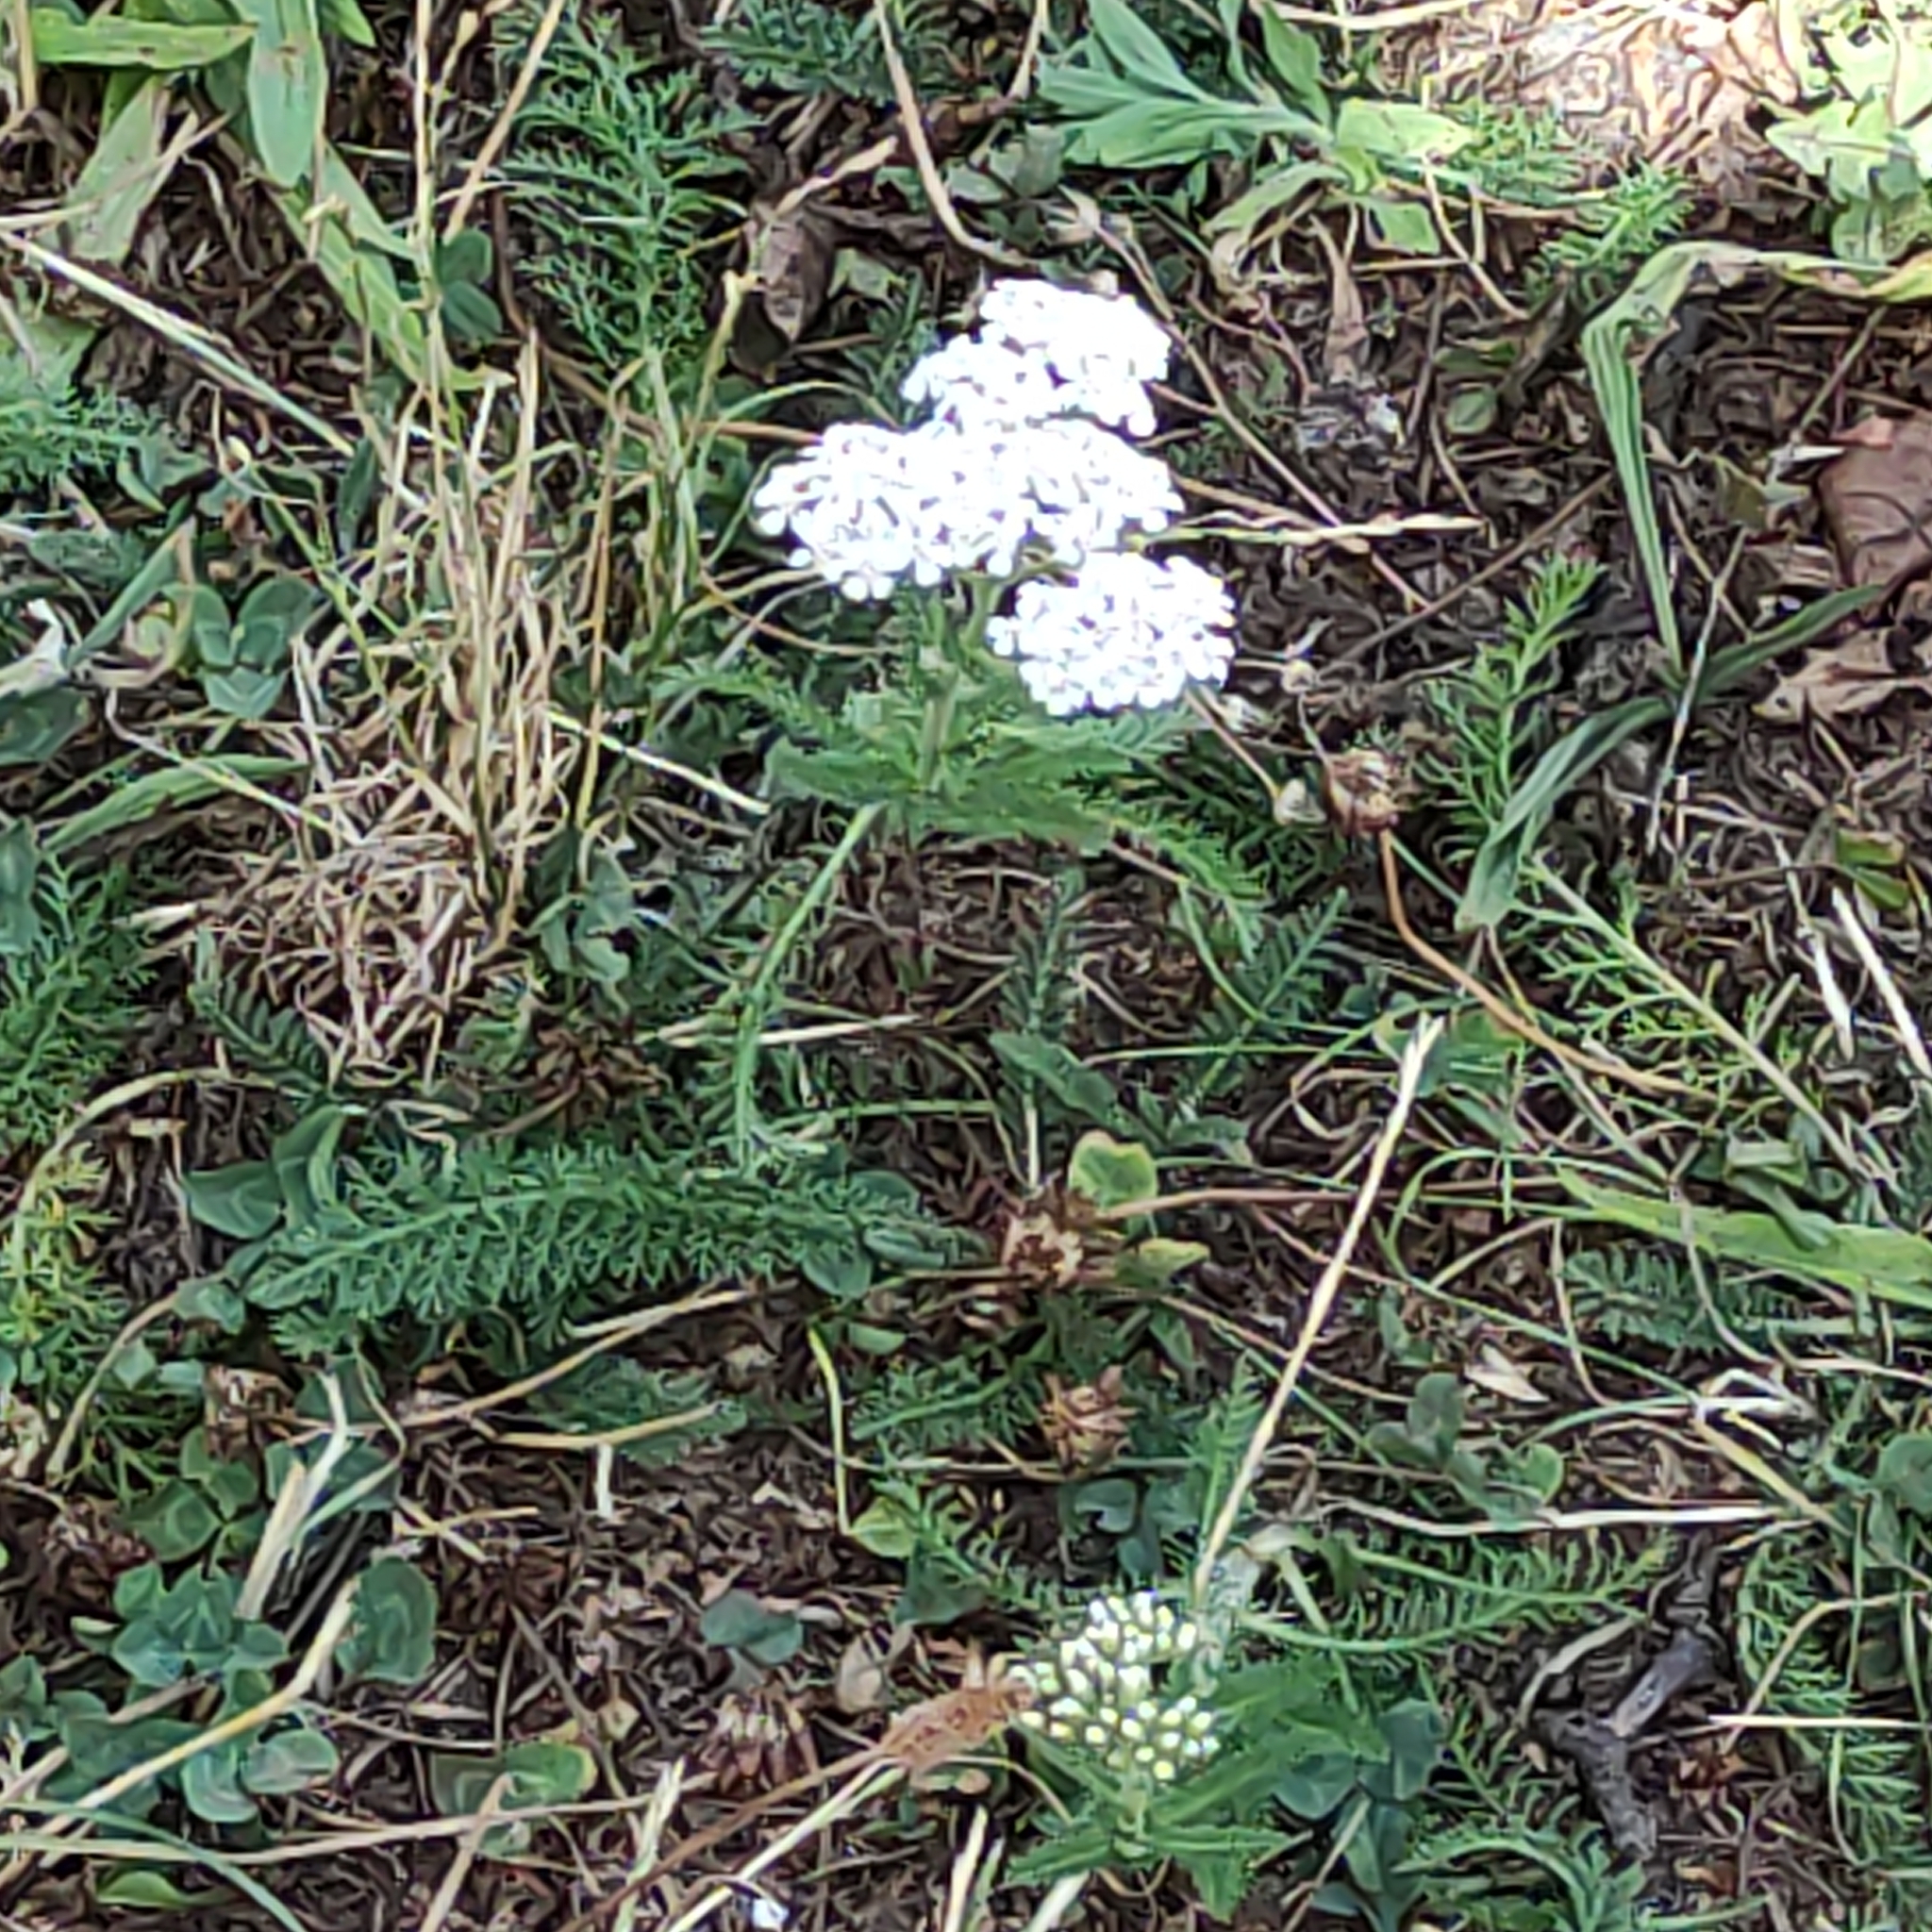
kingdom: Plantae
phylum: Tracheophyta
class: Magnoliopsida
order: Asterales
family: Asteraceae
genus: Achillea
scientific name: Achillea millefolium
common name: Yarrow
